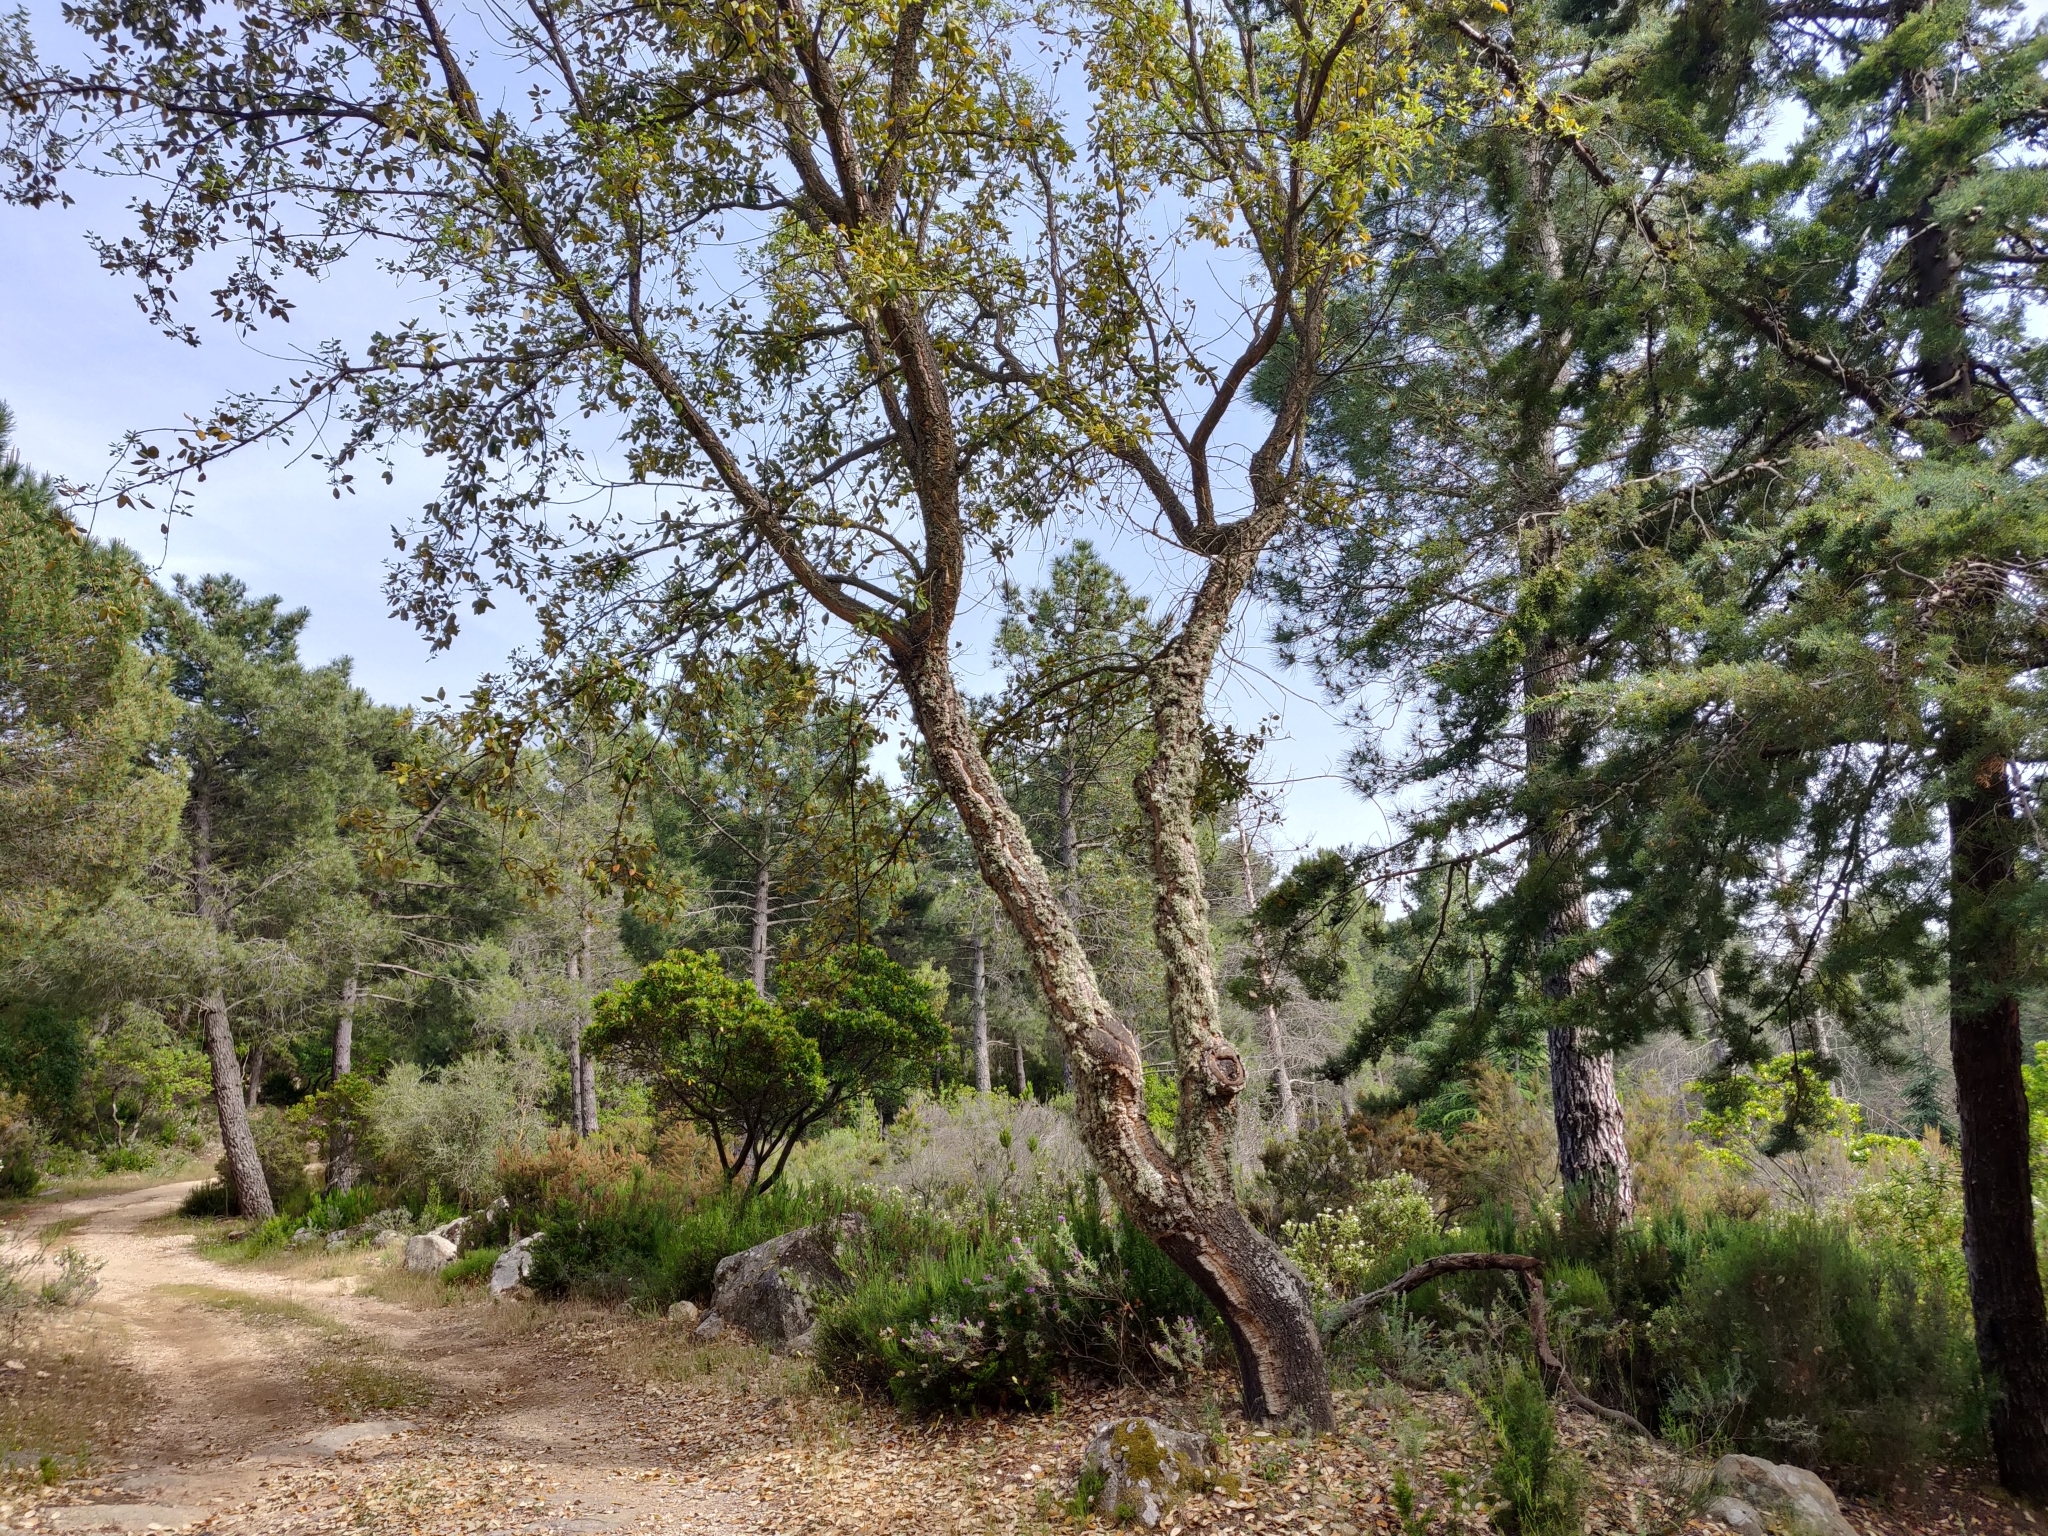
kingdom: Plantae
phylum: Tracheophyta
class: Magnoliopsida
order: Fagales
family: Fagaceae
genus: Quercus
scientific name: Quercus suber
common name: Cork oak
